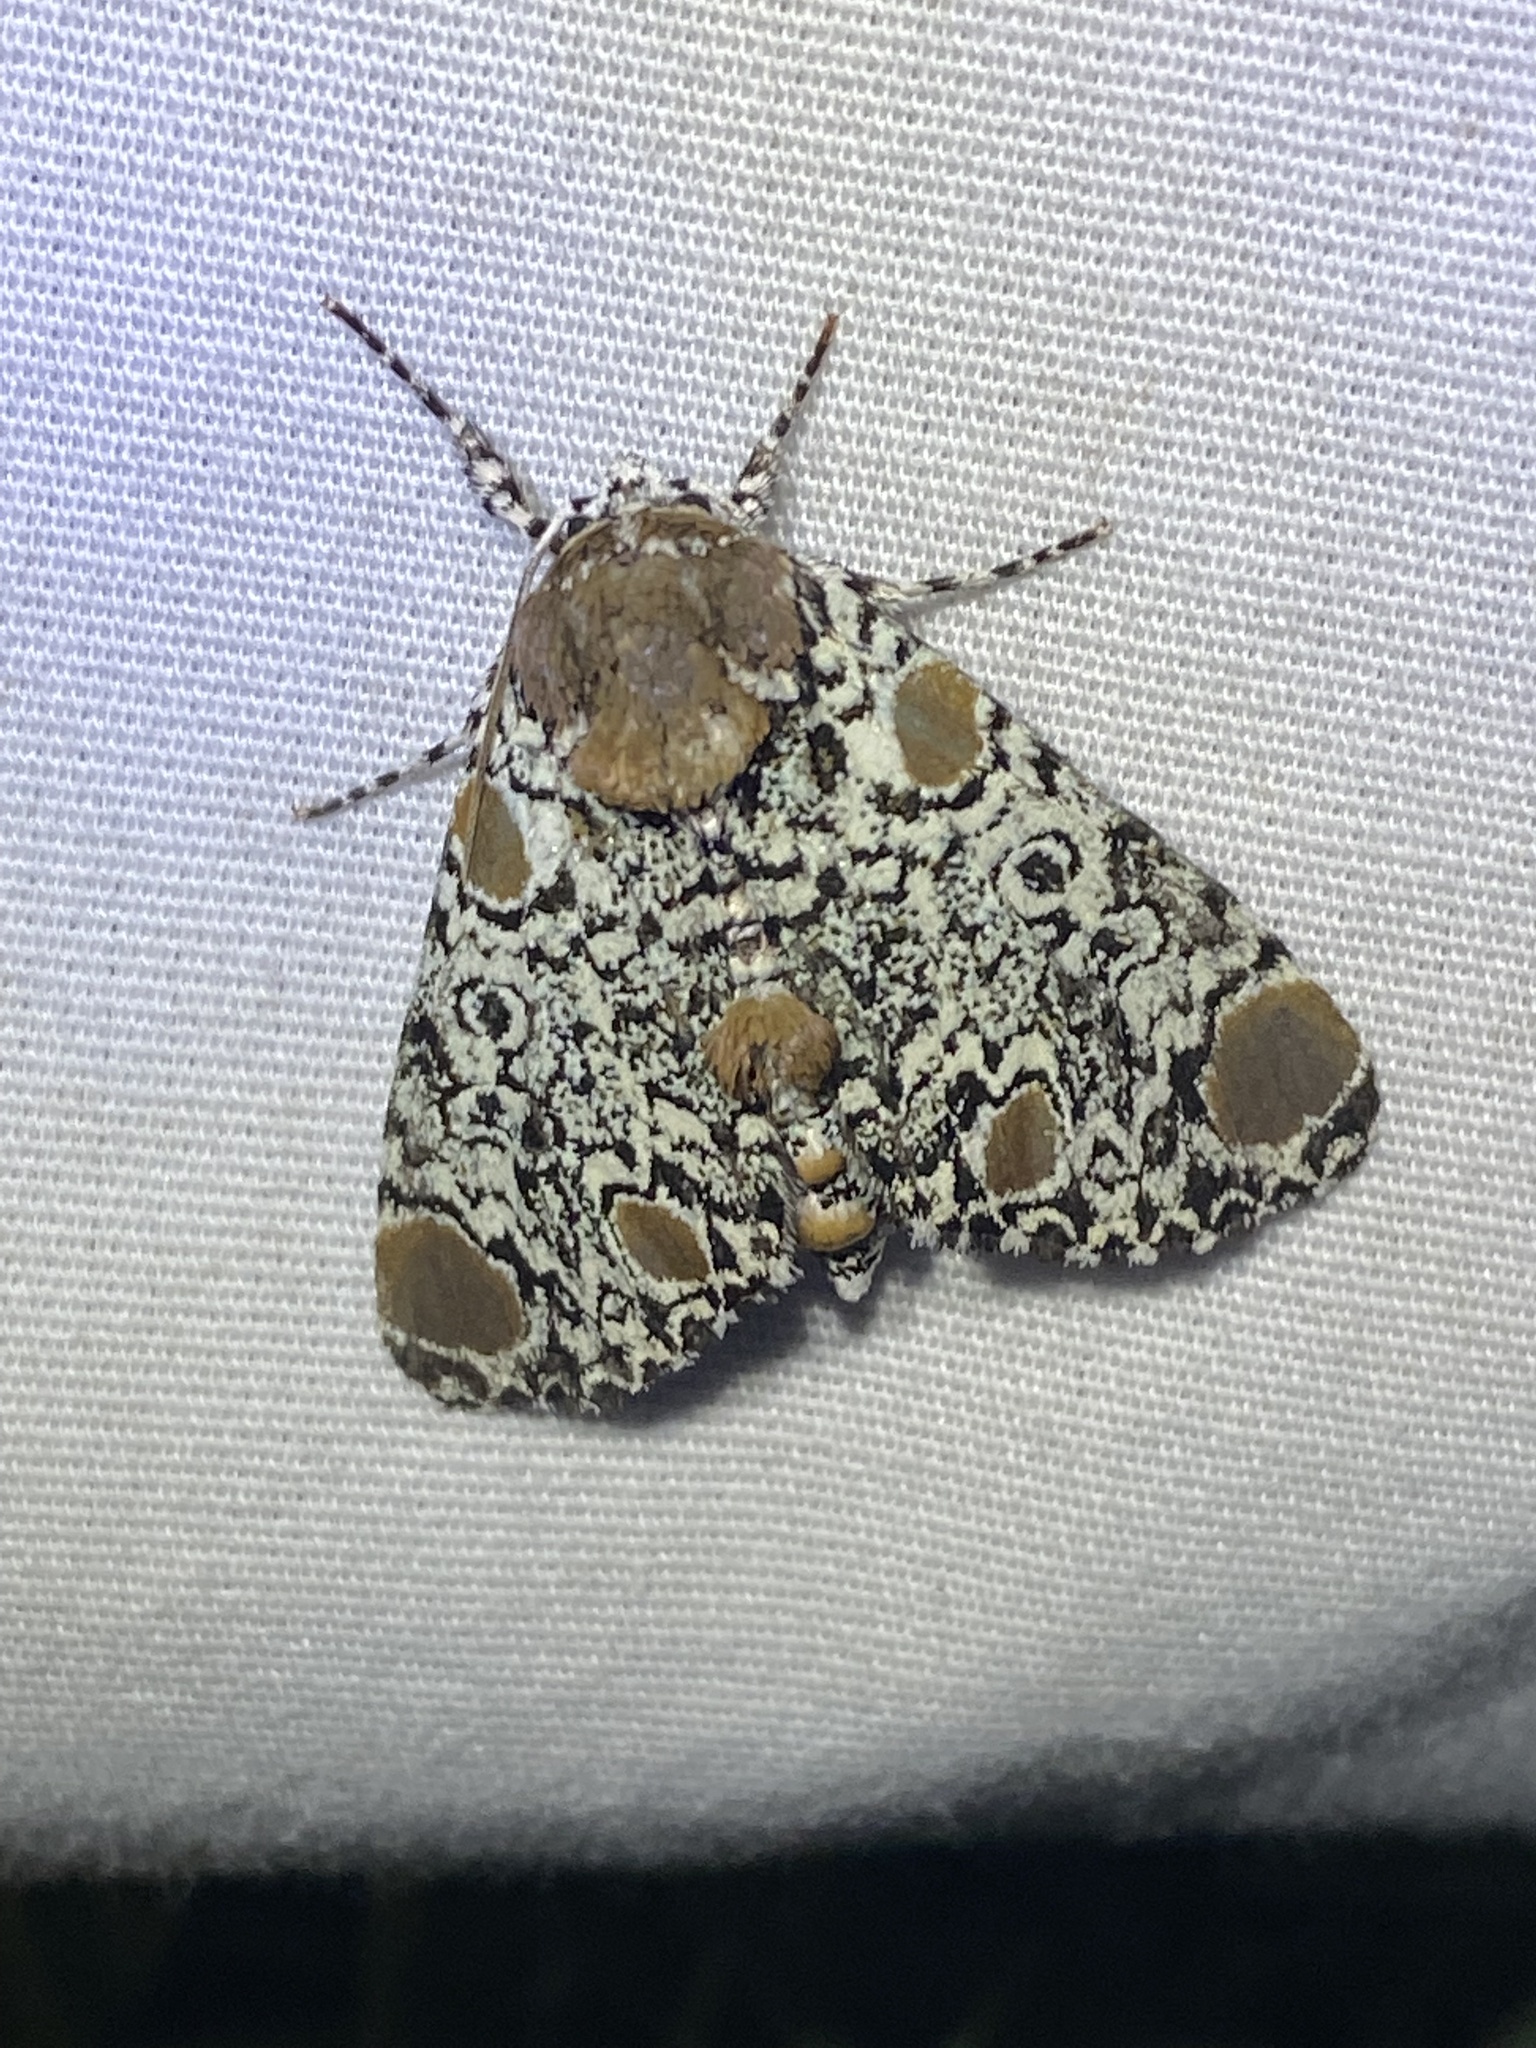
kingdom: Animalia
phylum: Arthropoda
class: Insecta
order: Lepidoptera
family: Noctuidae
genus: Harrisimemna
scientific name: Harrisimemna trisignata
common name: Harris threespot
